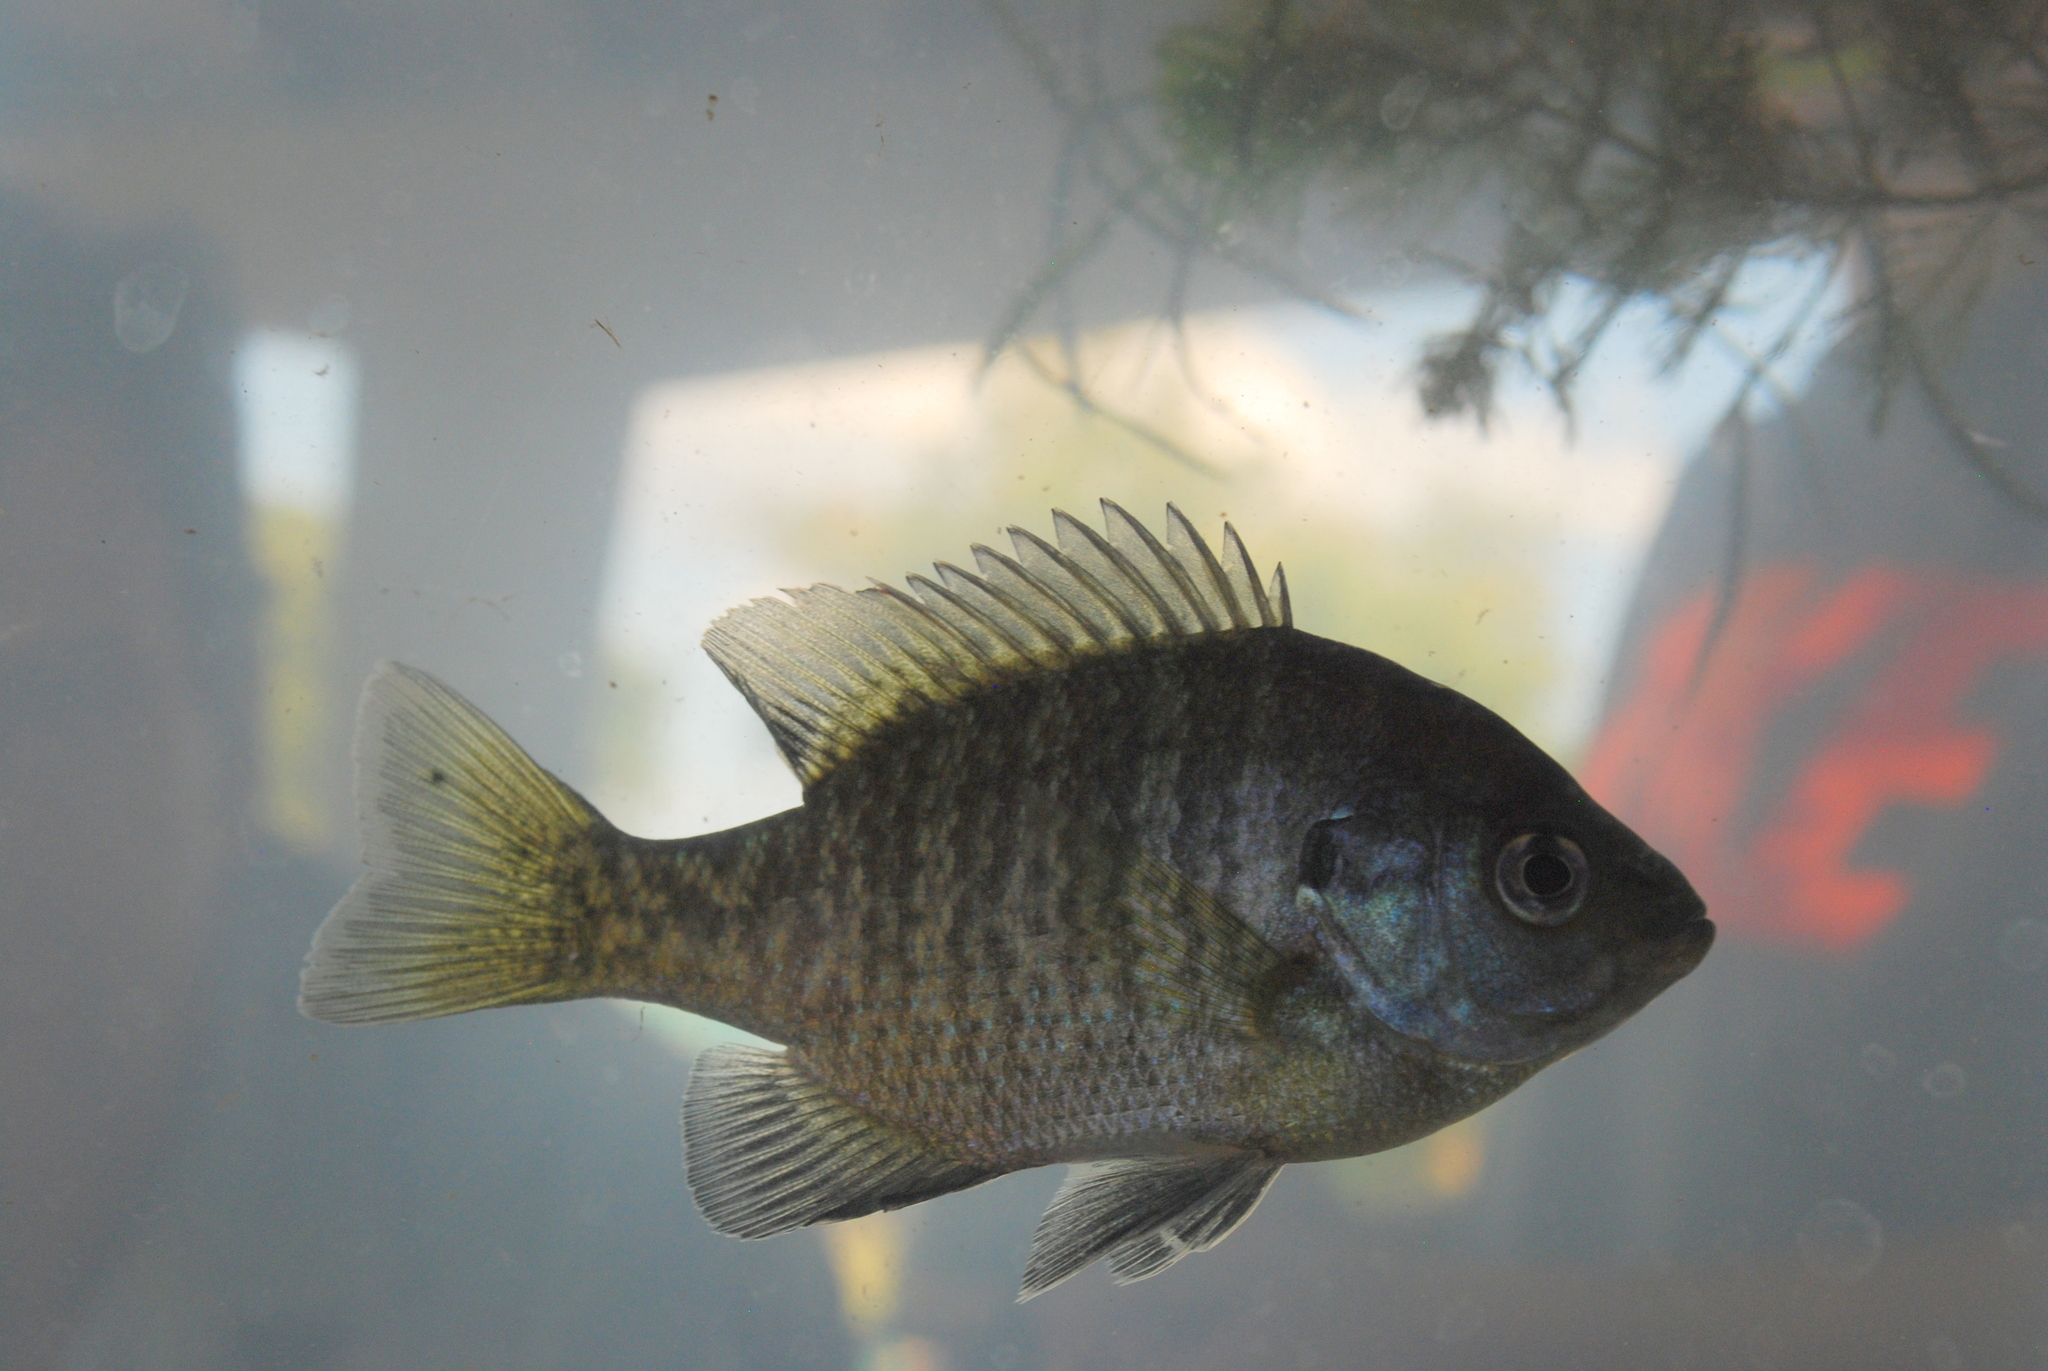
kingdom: Animalia
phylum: Chordata
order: Perciformes
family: Centrarchidae
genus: Lepomis
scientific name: Lepomis macrochirus
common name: Bluegill
